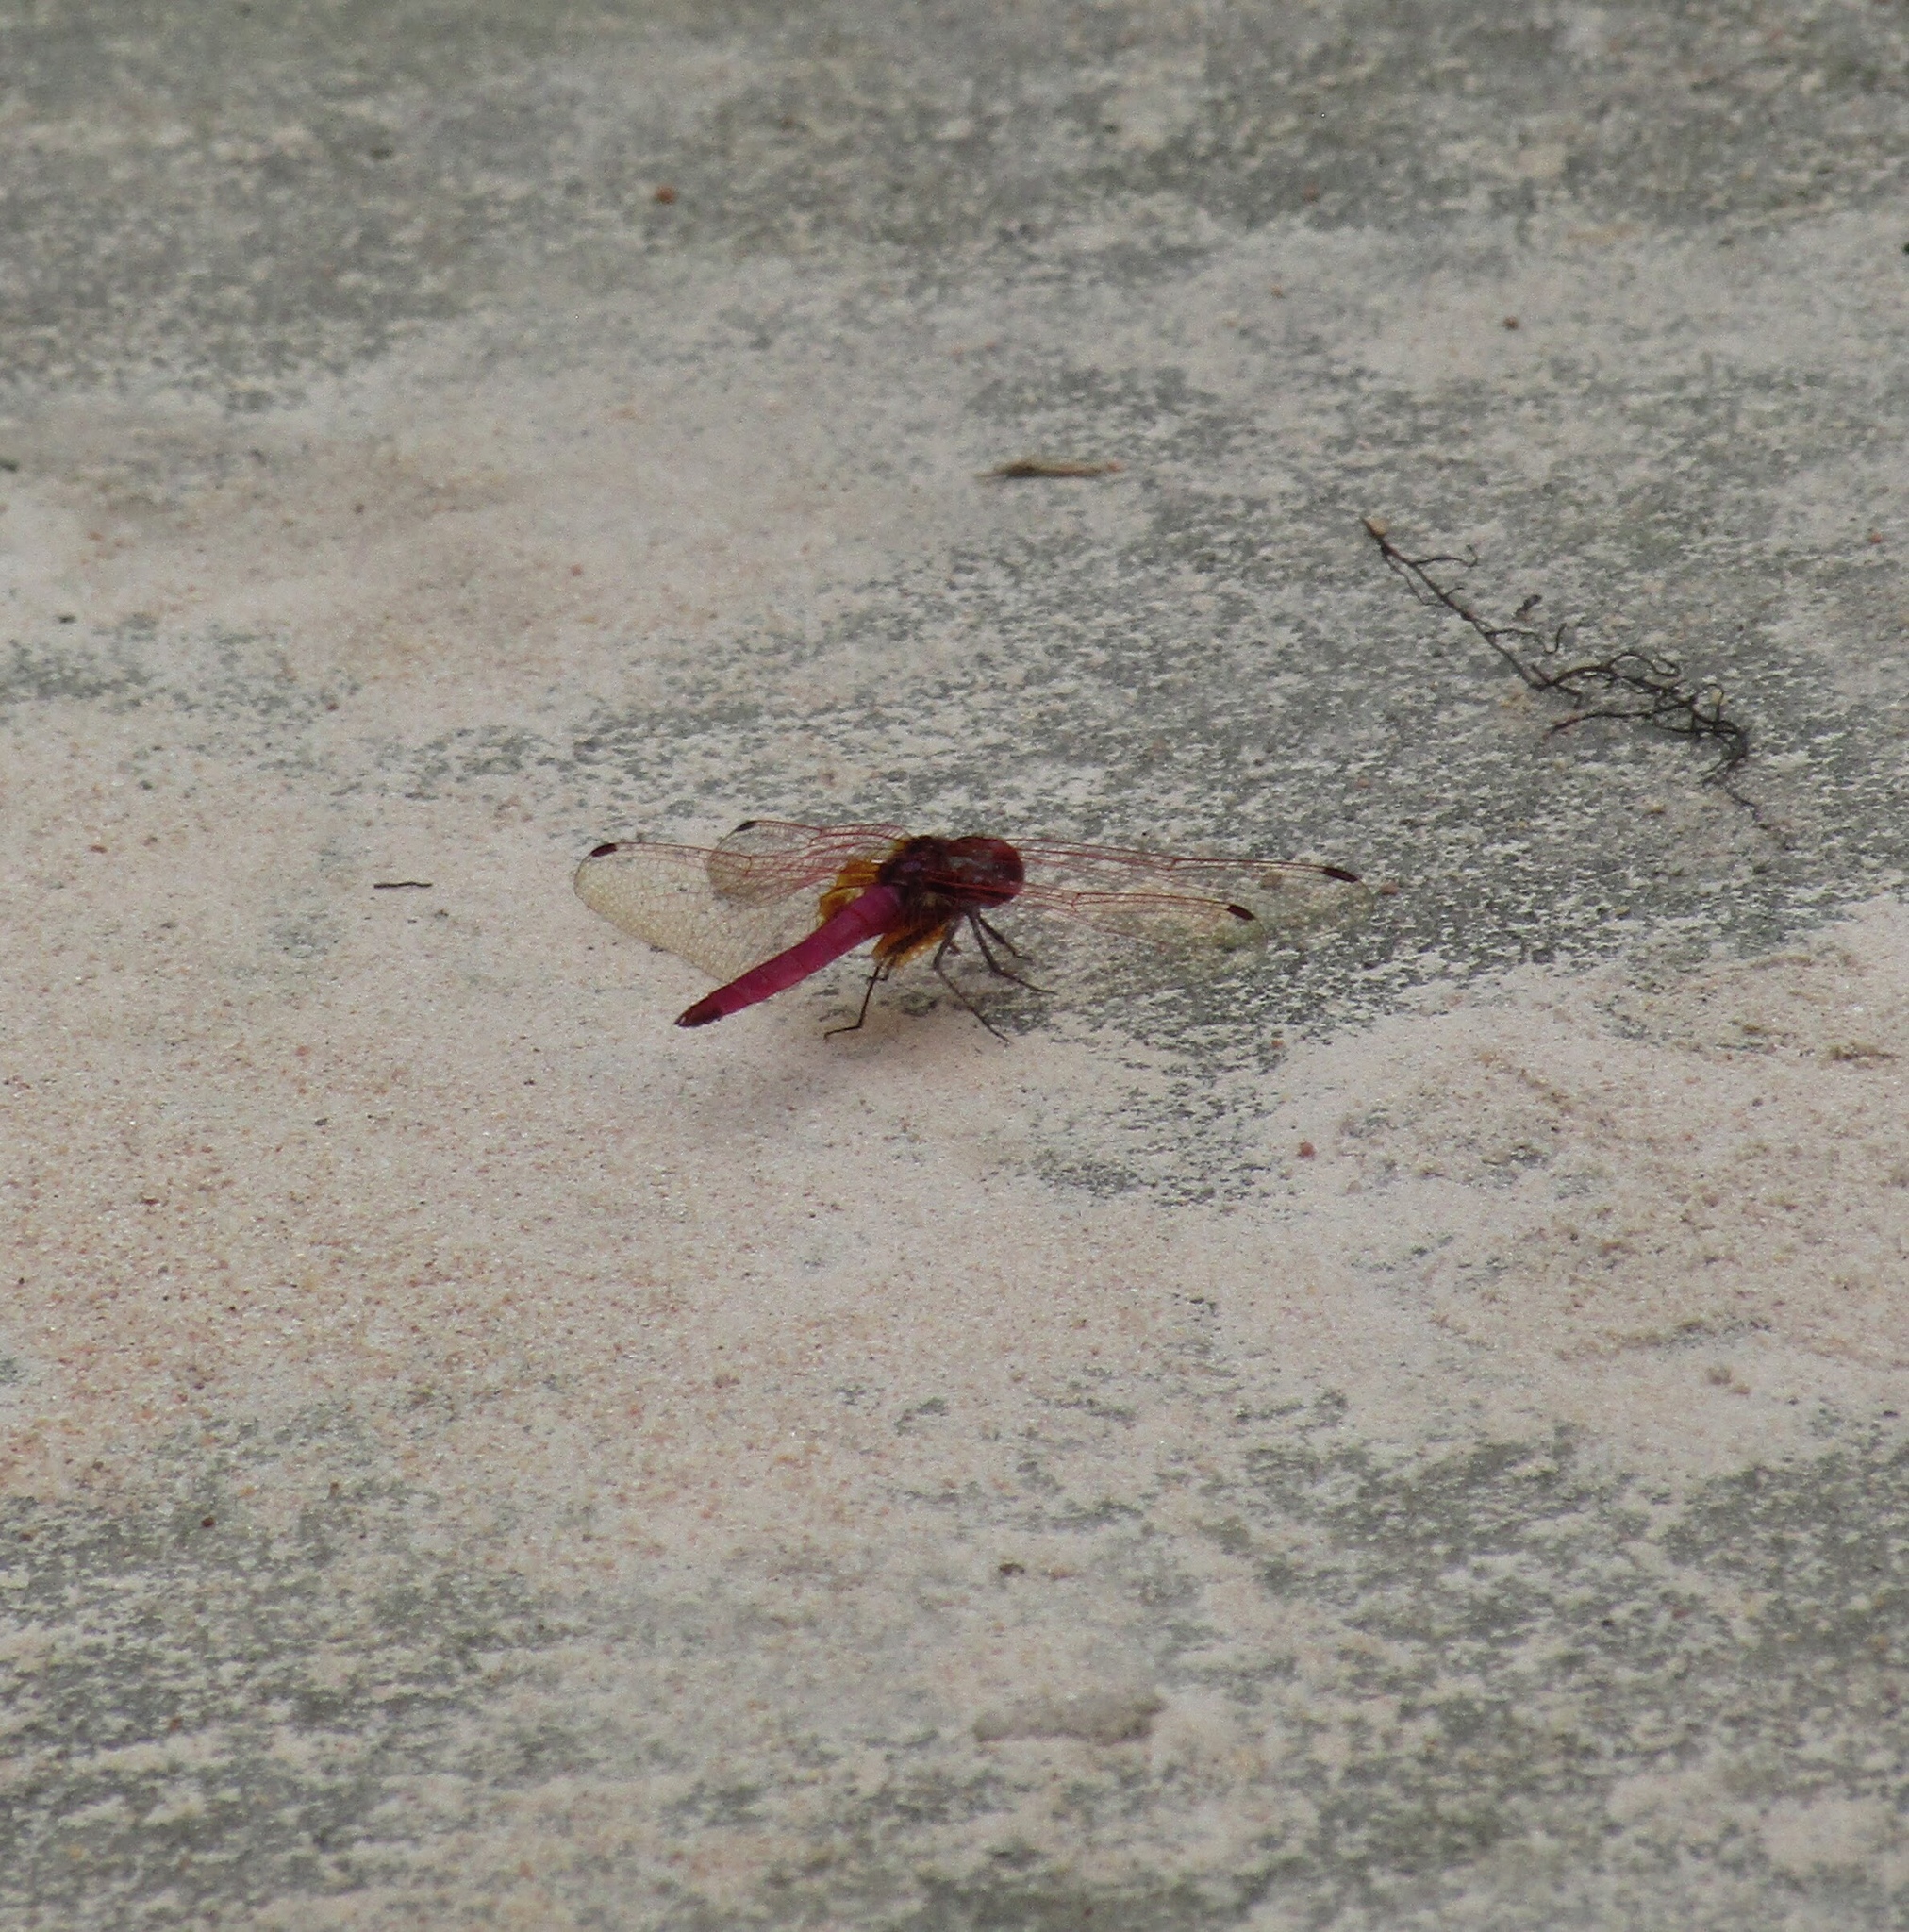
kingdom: Animalia
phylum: Arthropoda
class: Insecta
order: Odonata
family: Libellulidae
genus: Trithemis
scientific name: Trithemis aurora
